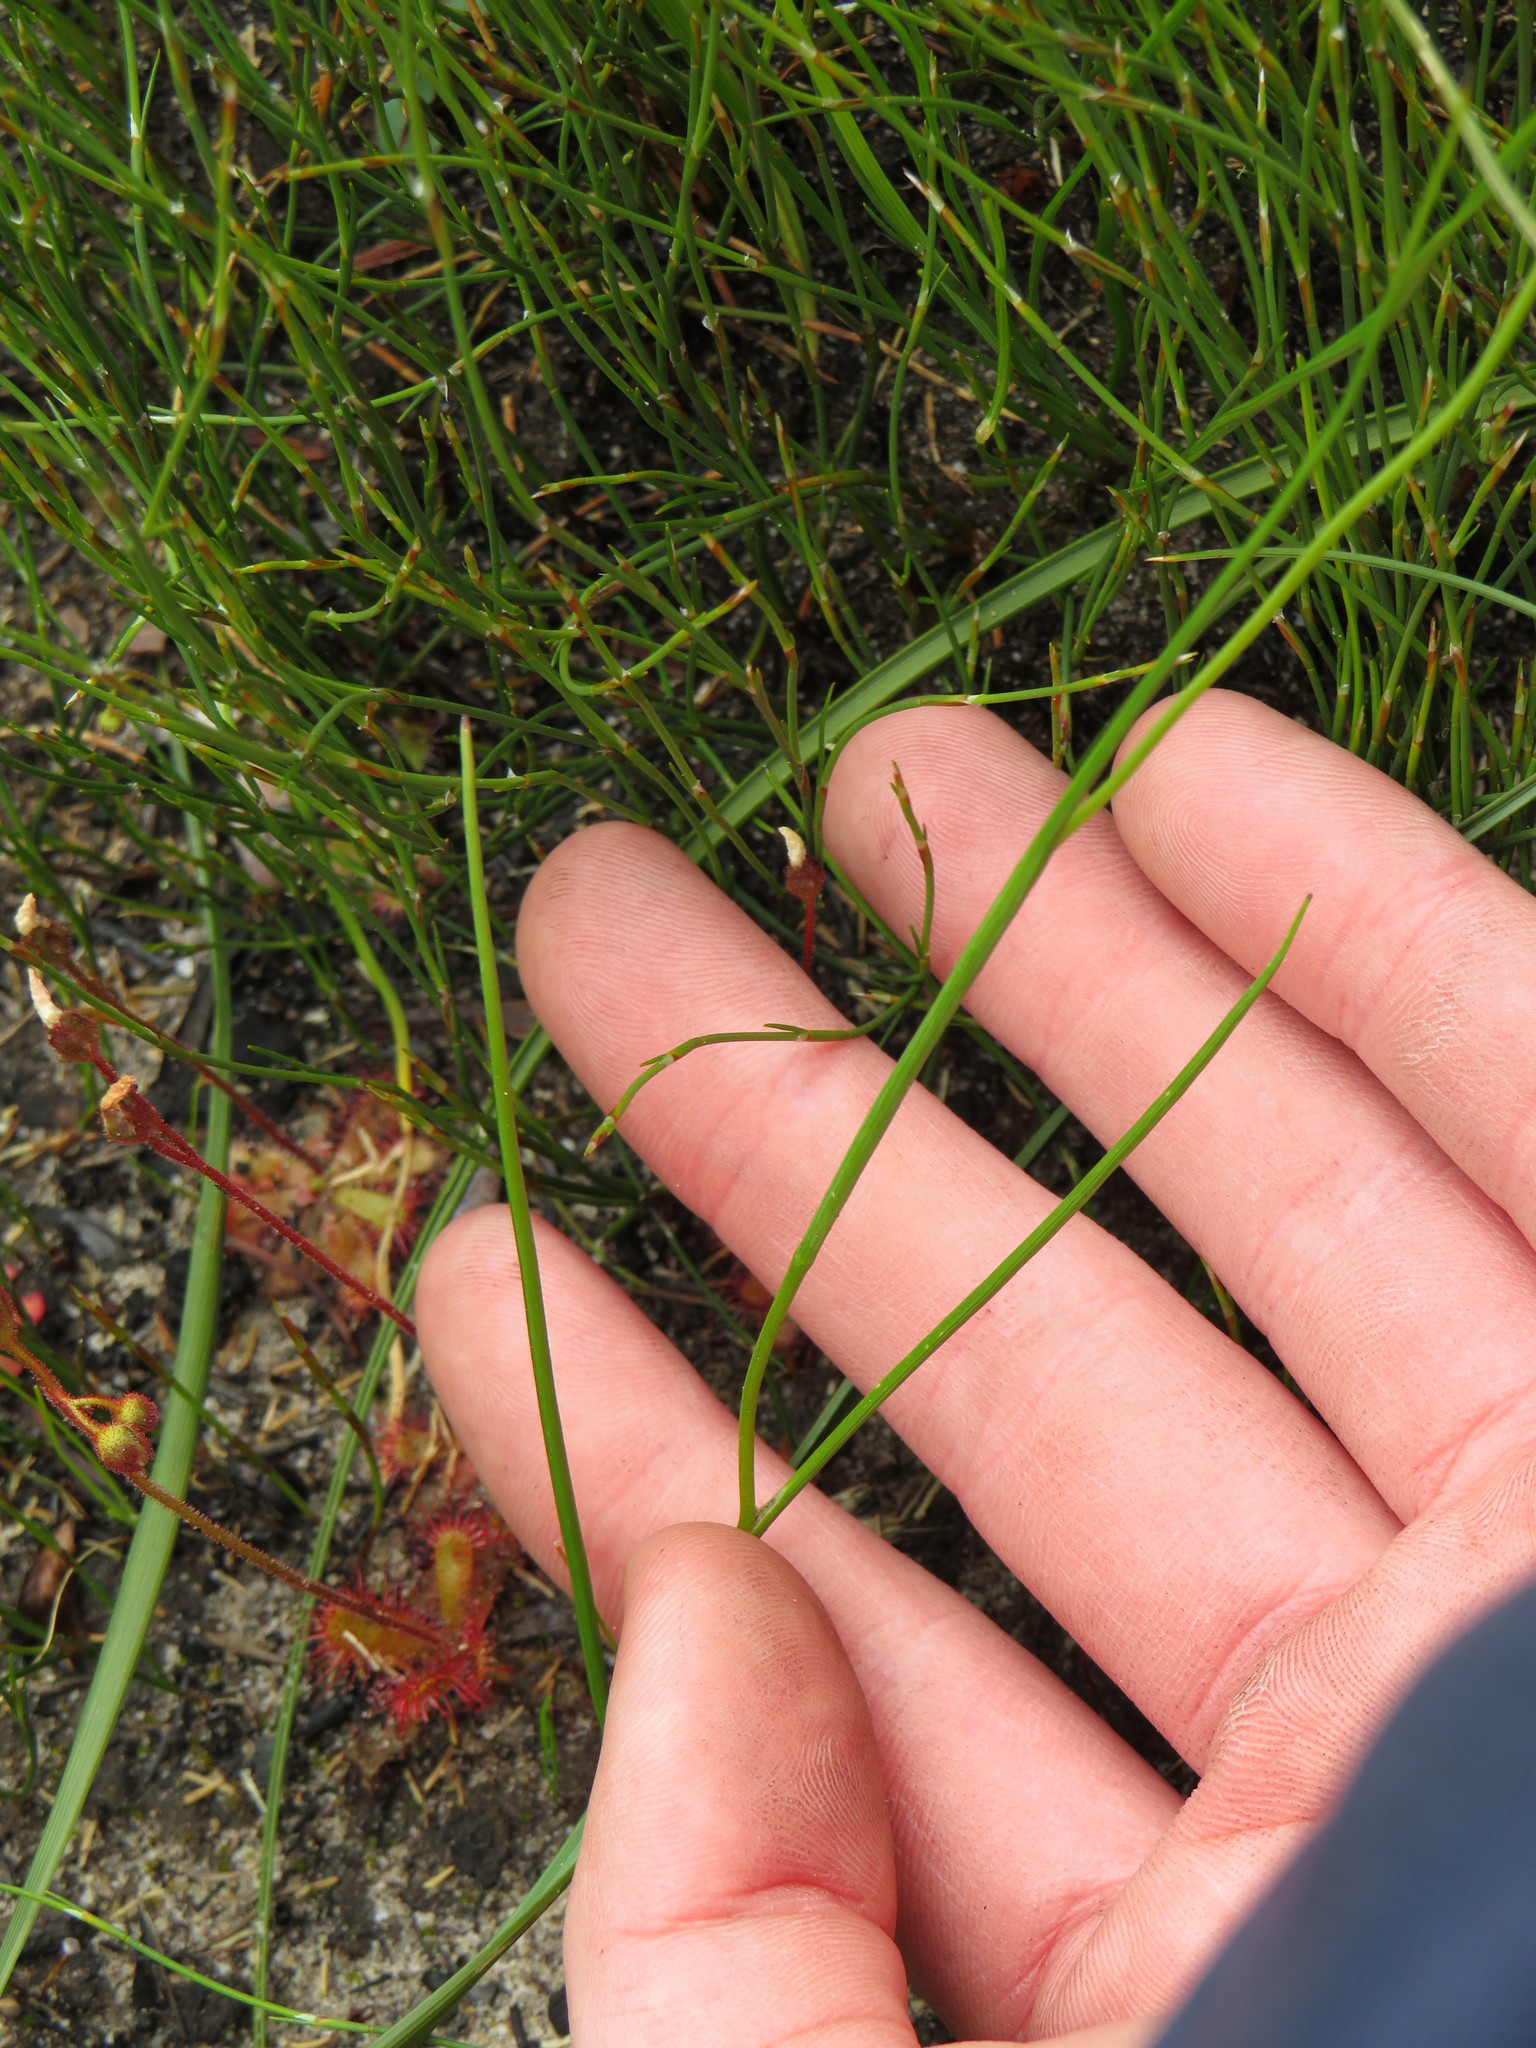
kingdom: Plantae
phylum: Tracheophyta
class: Liliopsida
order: Asparagales
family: Iridaceae
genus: Geissorhiza
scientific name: Geissorhiza juncea
